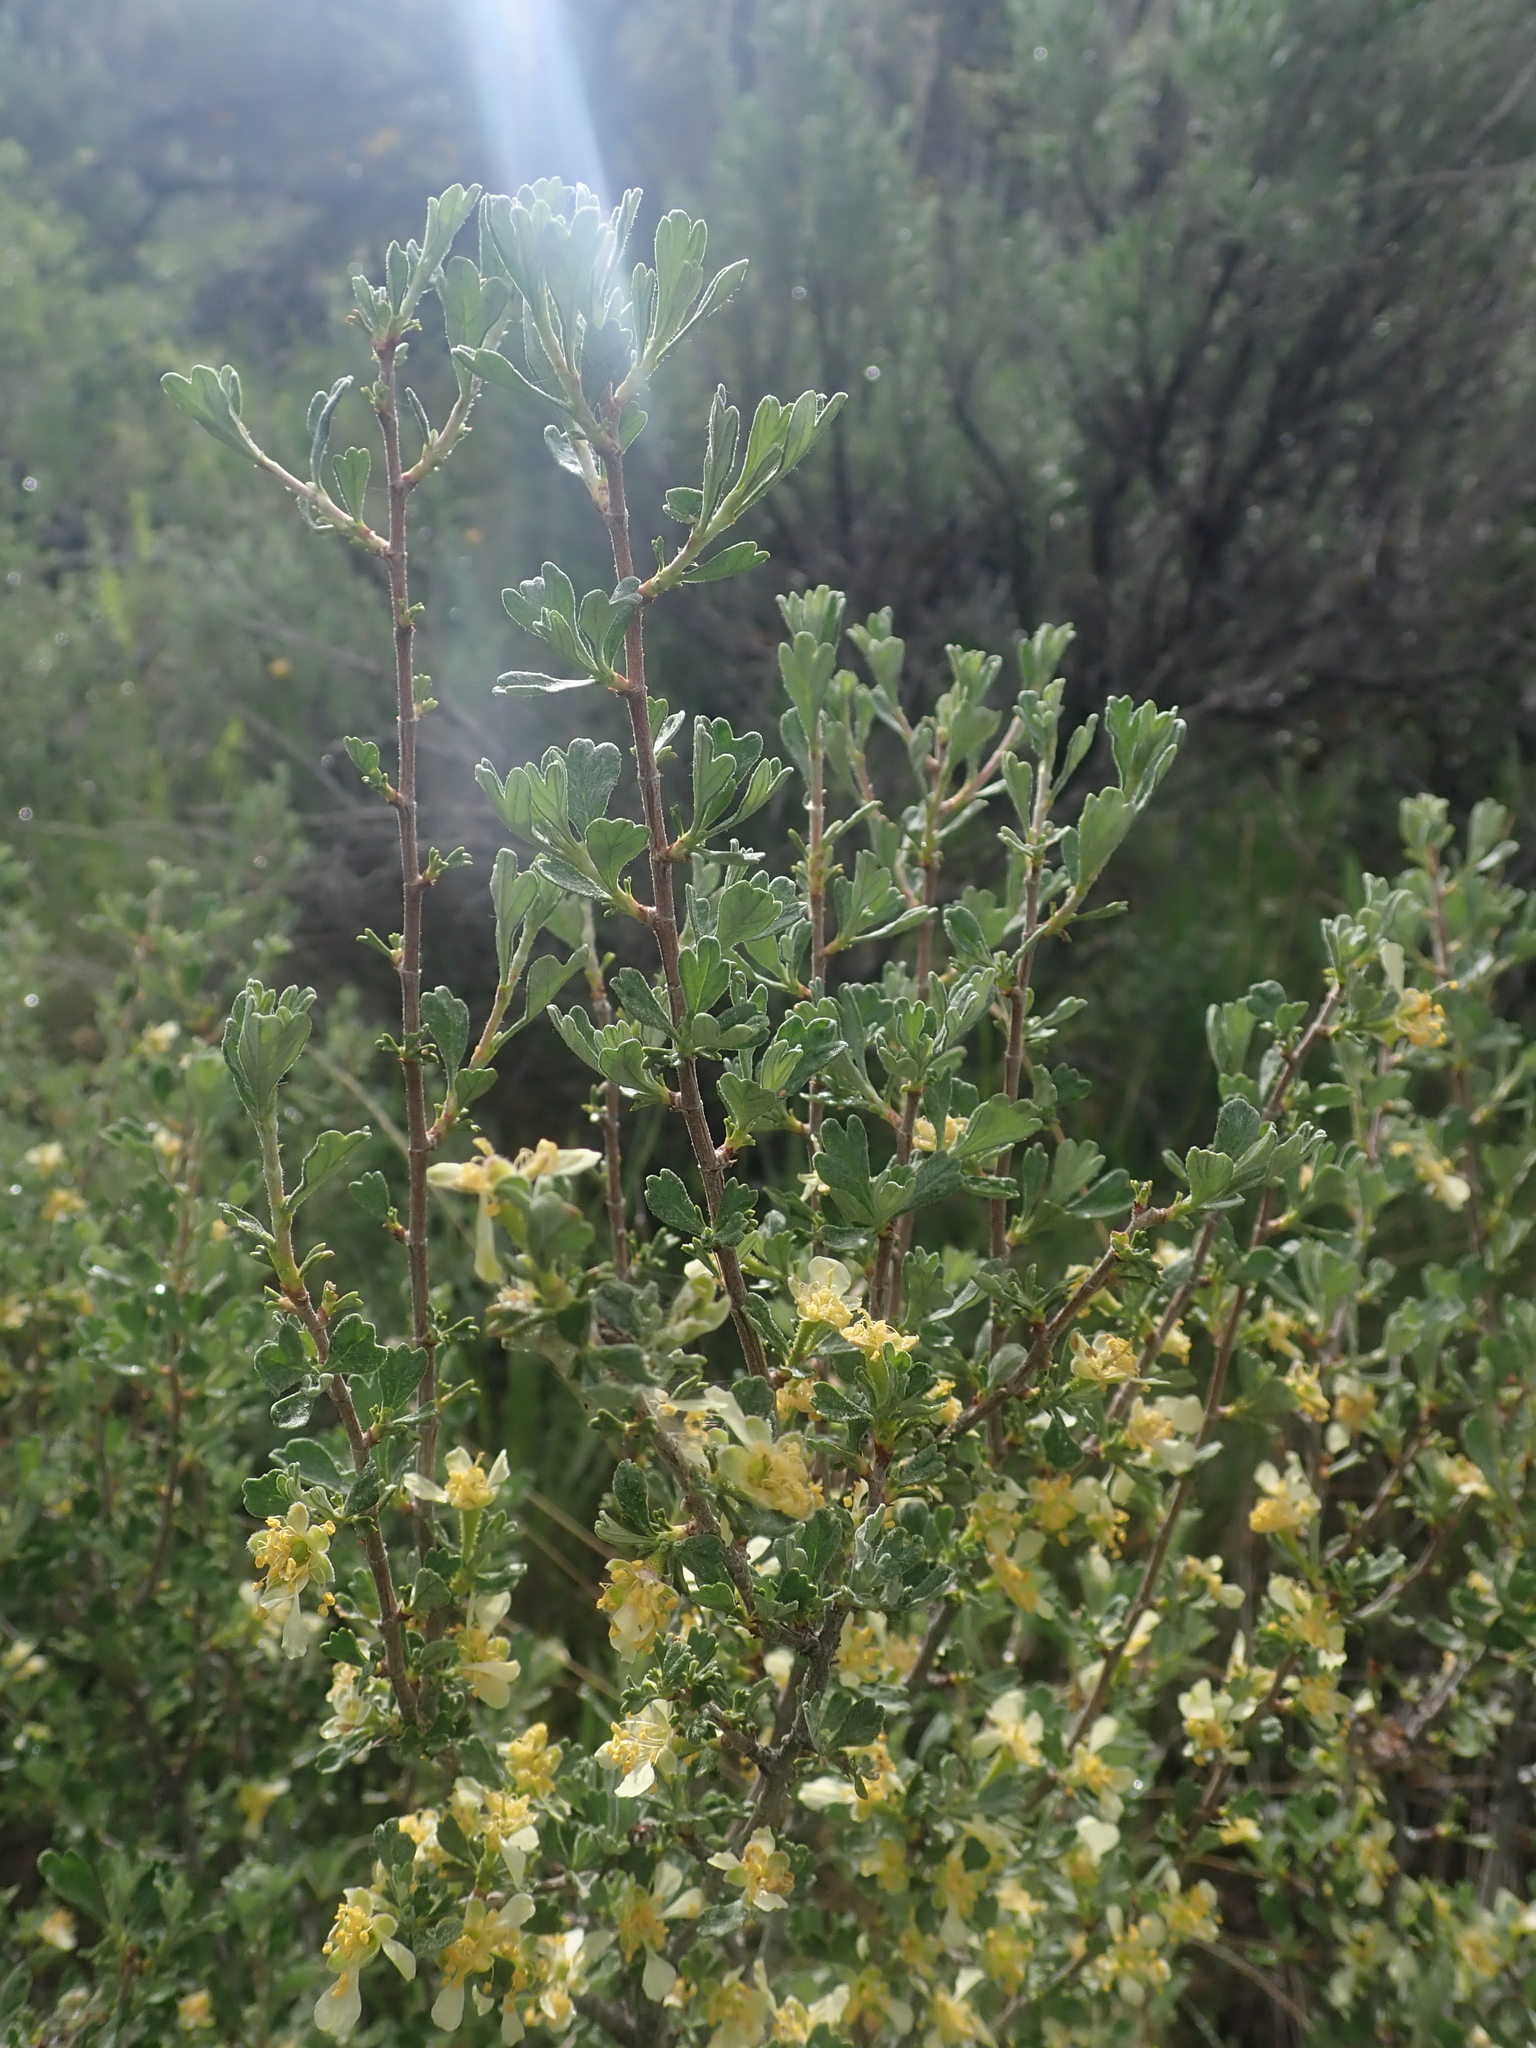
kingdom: Plantae
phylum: Tracheophyta
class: Magnoliopsida
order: Rosales
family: Rosaceae
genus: Purshia
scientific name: Purshia tridentata
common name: Antelope bitterbrush
